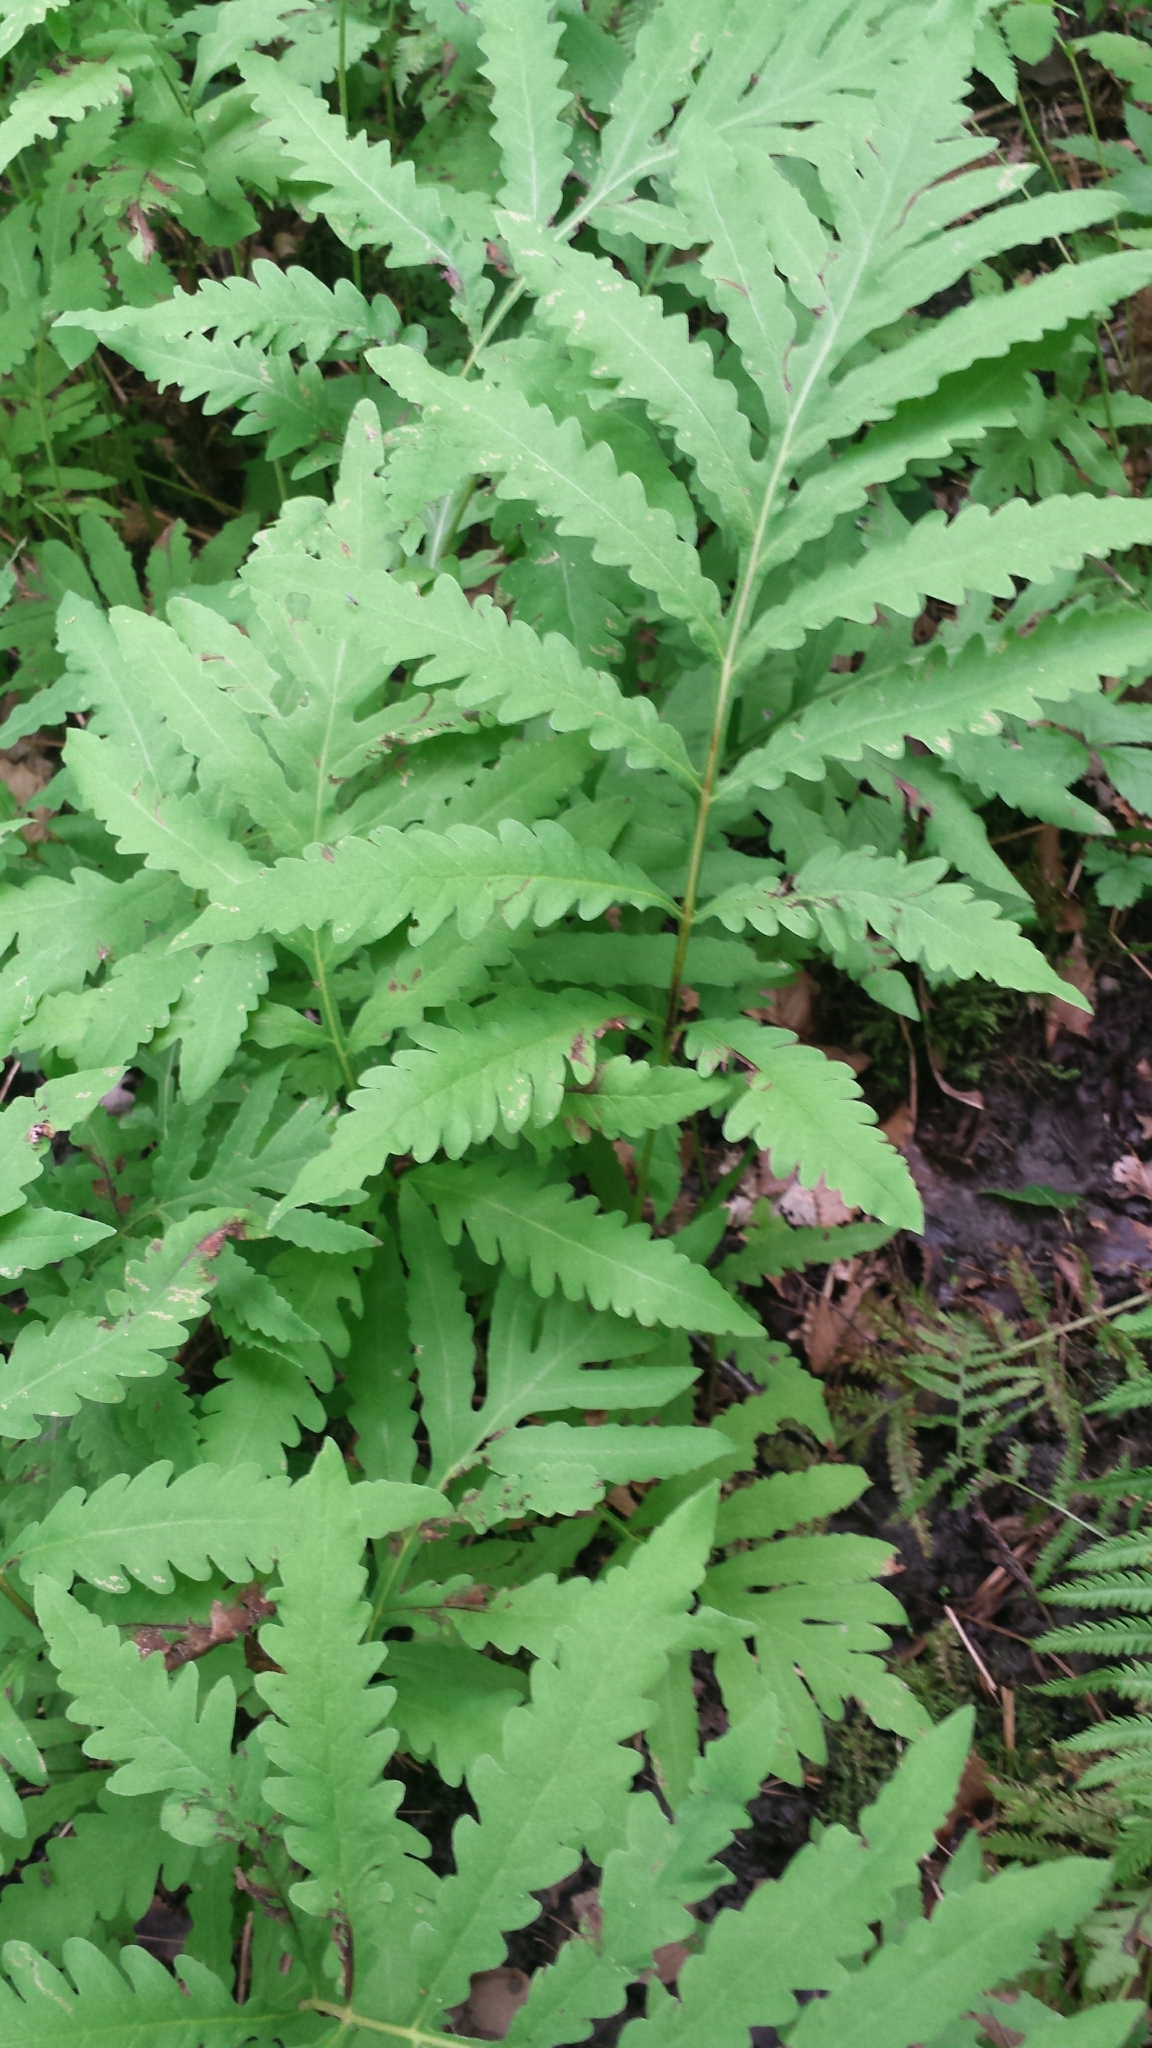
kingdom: Plantae
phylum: Tracheophyta
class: Polypodiopsida
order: Polypodiales
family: Onocleaceae
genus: Onoclea
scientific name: Onoclea sensibilis
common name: Sensitive fern
